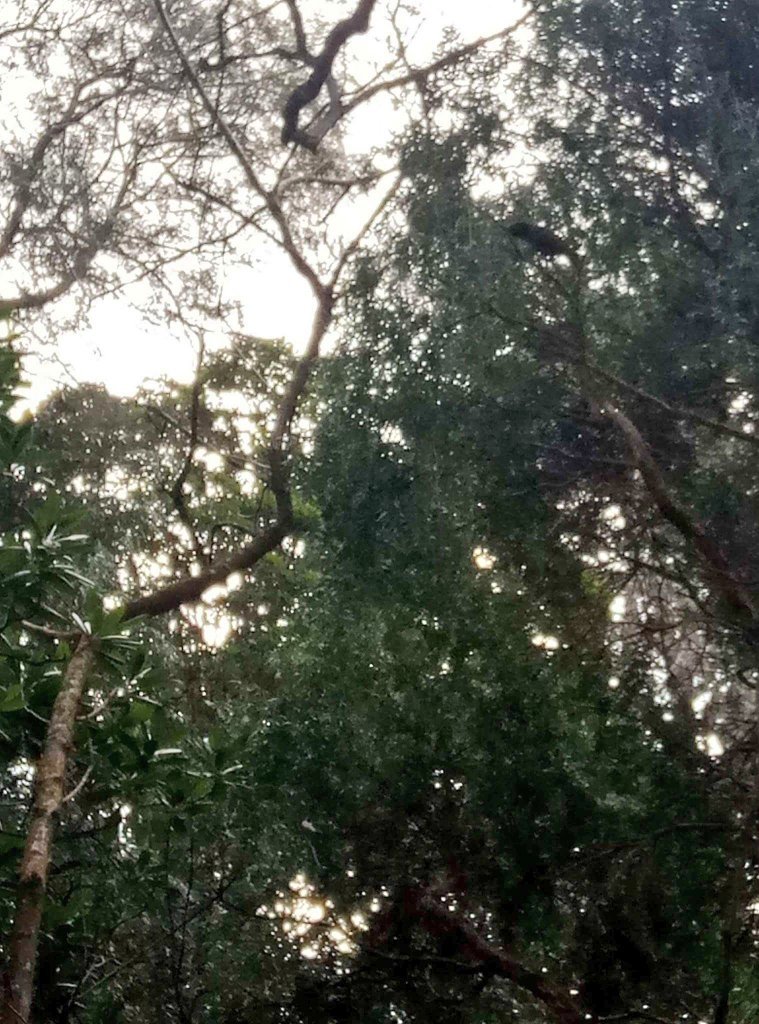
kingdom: Animalia
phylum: Chordata
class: Aves
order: Psittaciformes
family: Psittacidae
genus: Nestor
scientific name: Nestor meridionalis
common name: New zealand kaka
